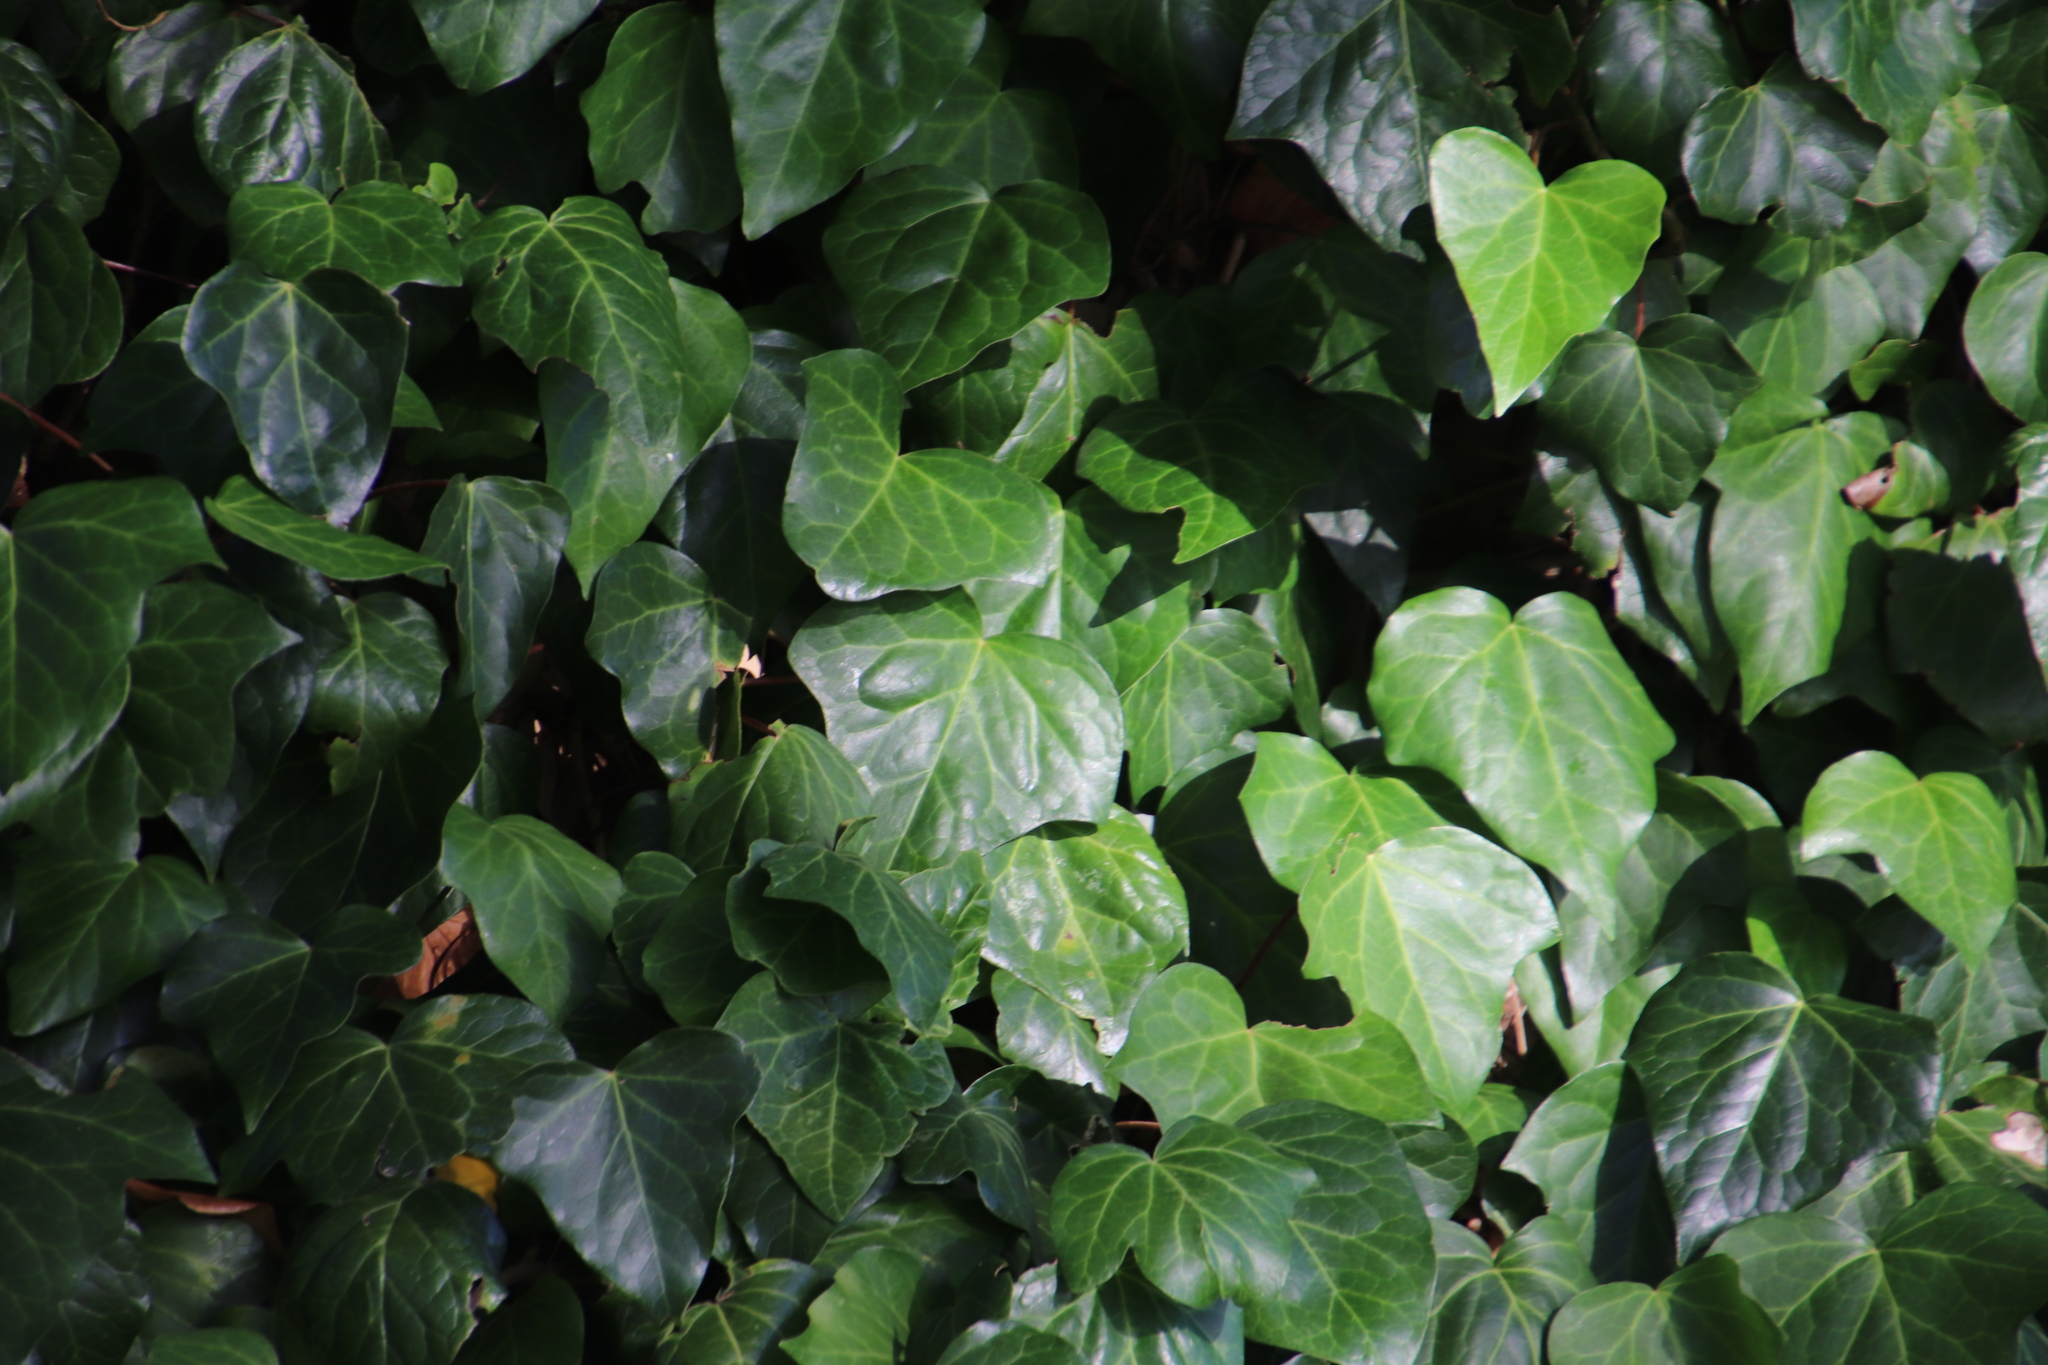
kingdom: Plantae
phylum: Tracheophyta
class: Magnoliopsida
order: Apiales
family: Araliaceae
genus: Hedera
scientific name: Hedera canariensis
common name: Madeira ivy
